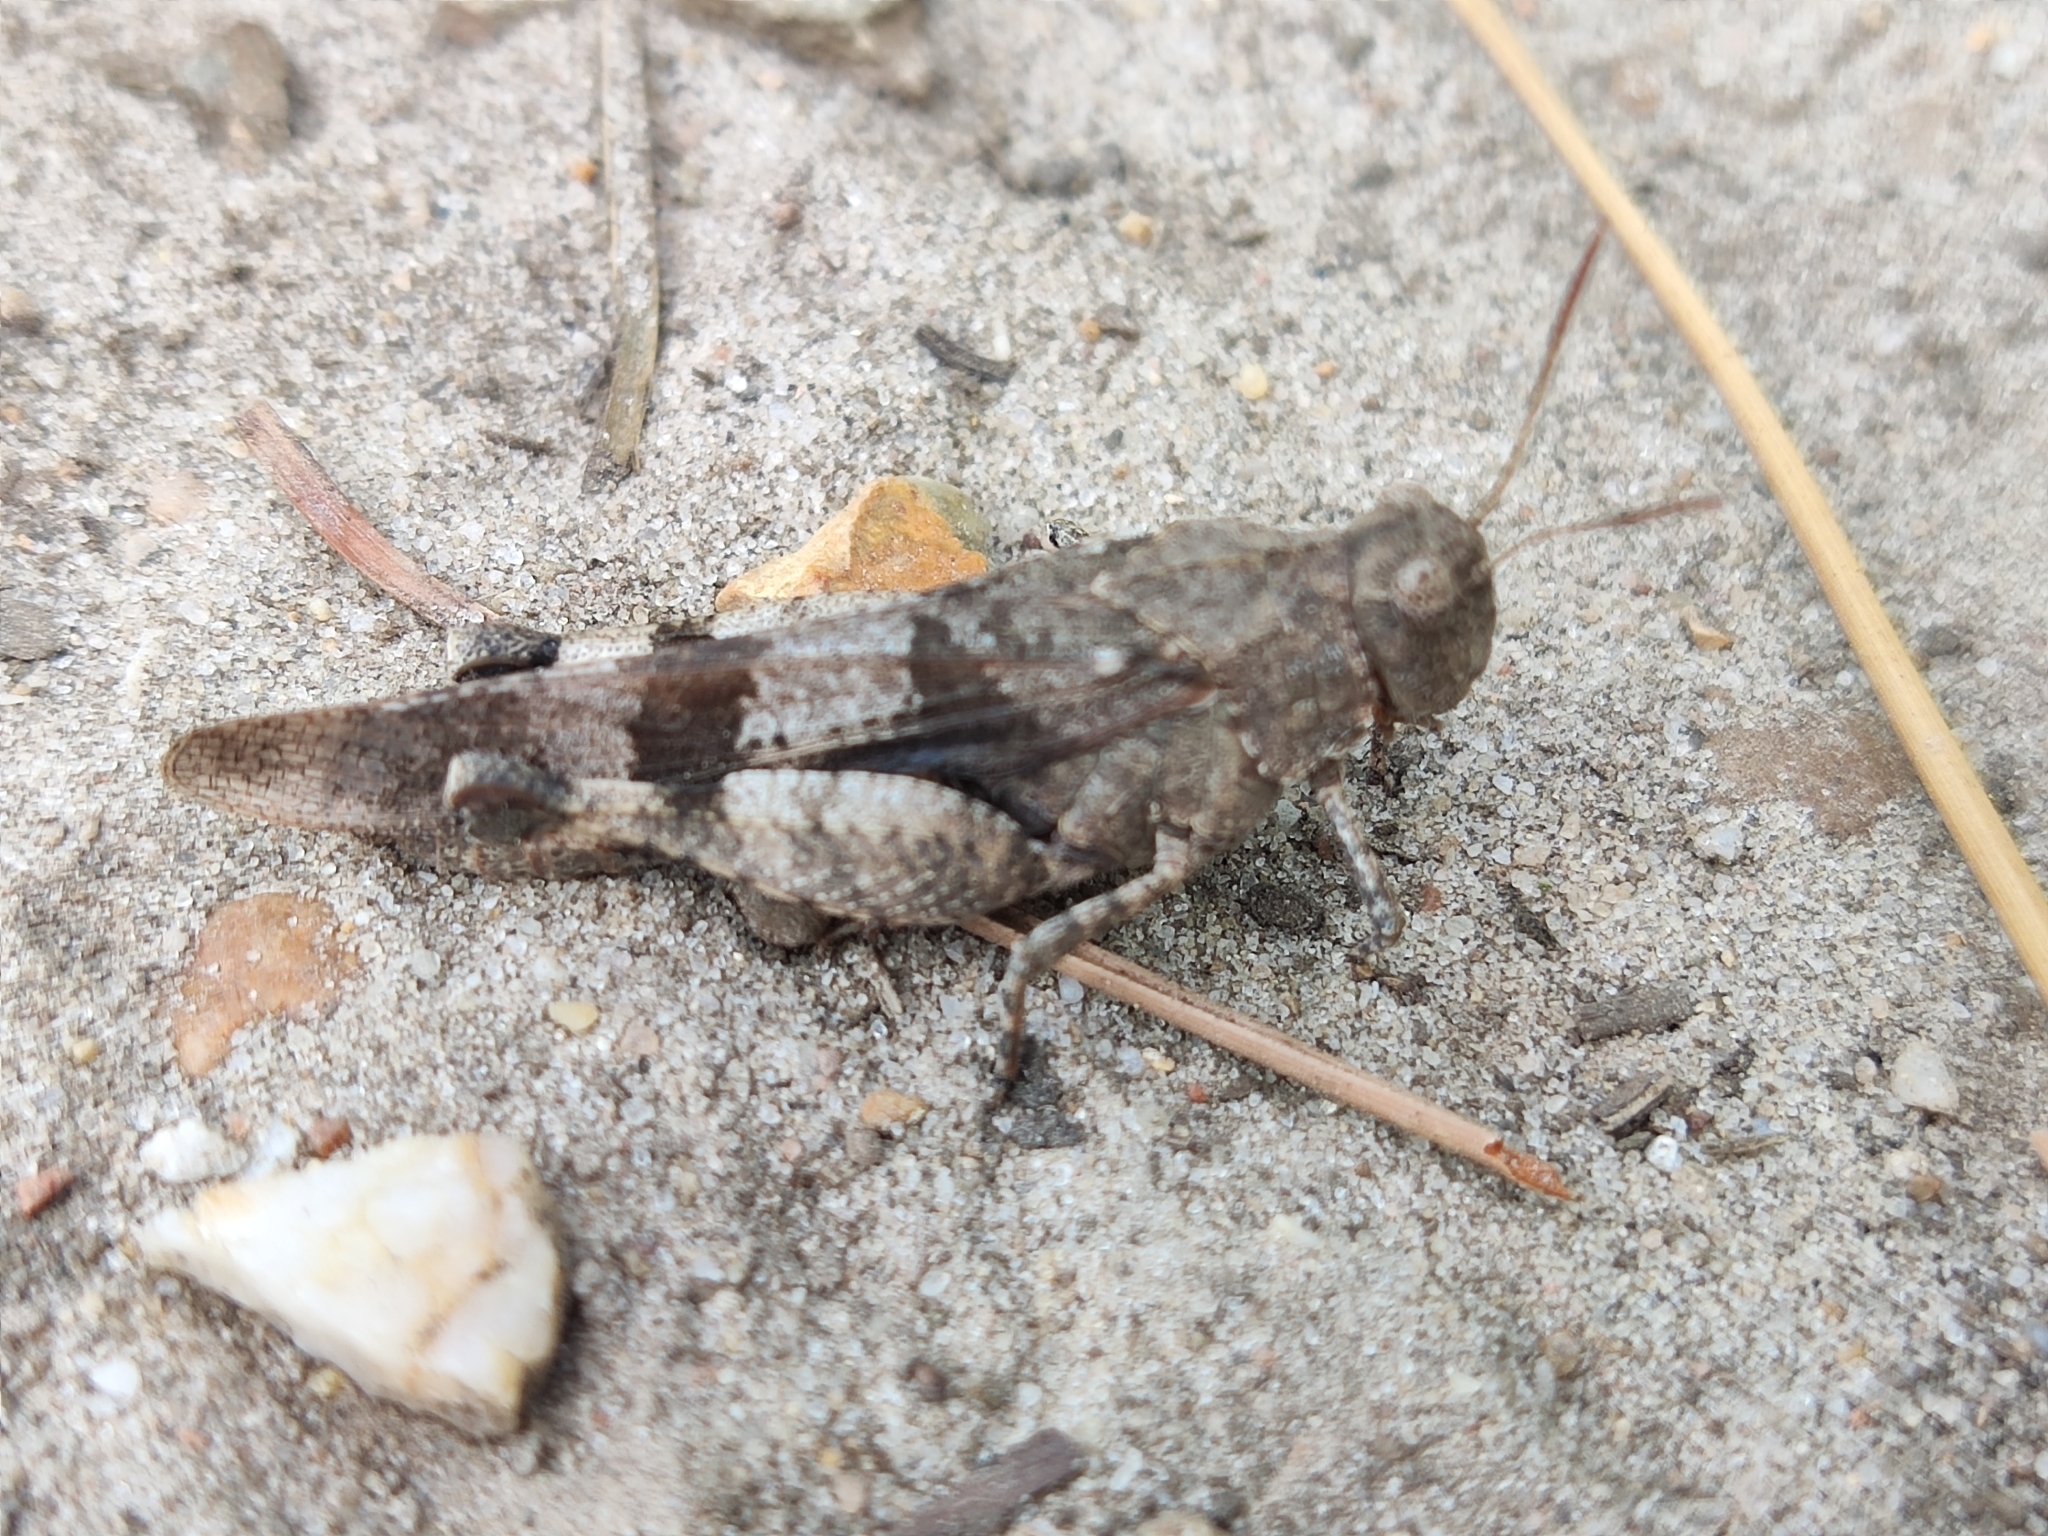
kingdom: Animalia
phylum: Arthropoda
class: Insecta
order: Orthoptera
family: Acrididae
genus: Oedipoda
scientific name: Oedipoda caerulescens
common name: Blue-winged grasshopper
